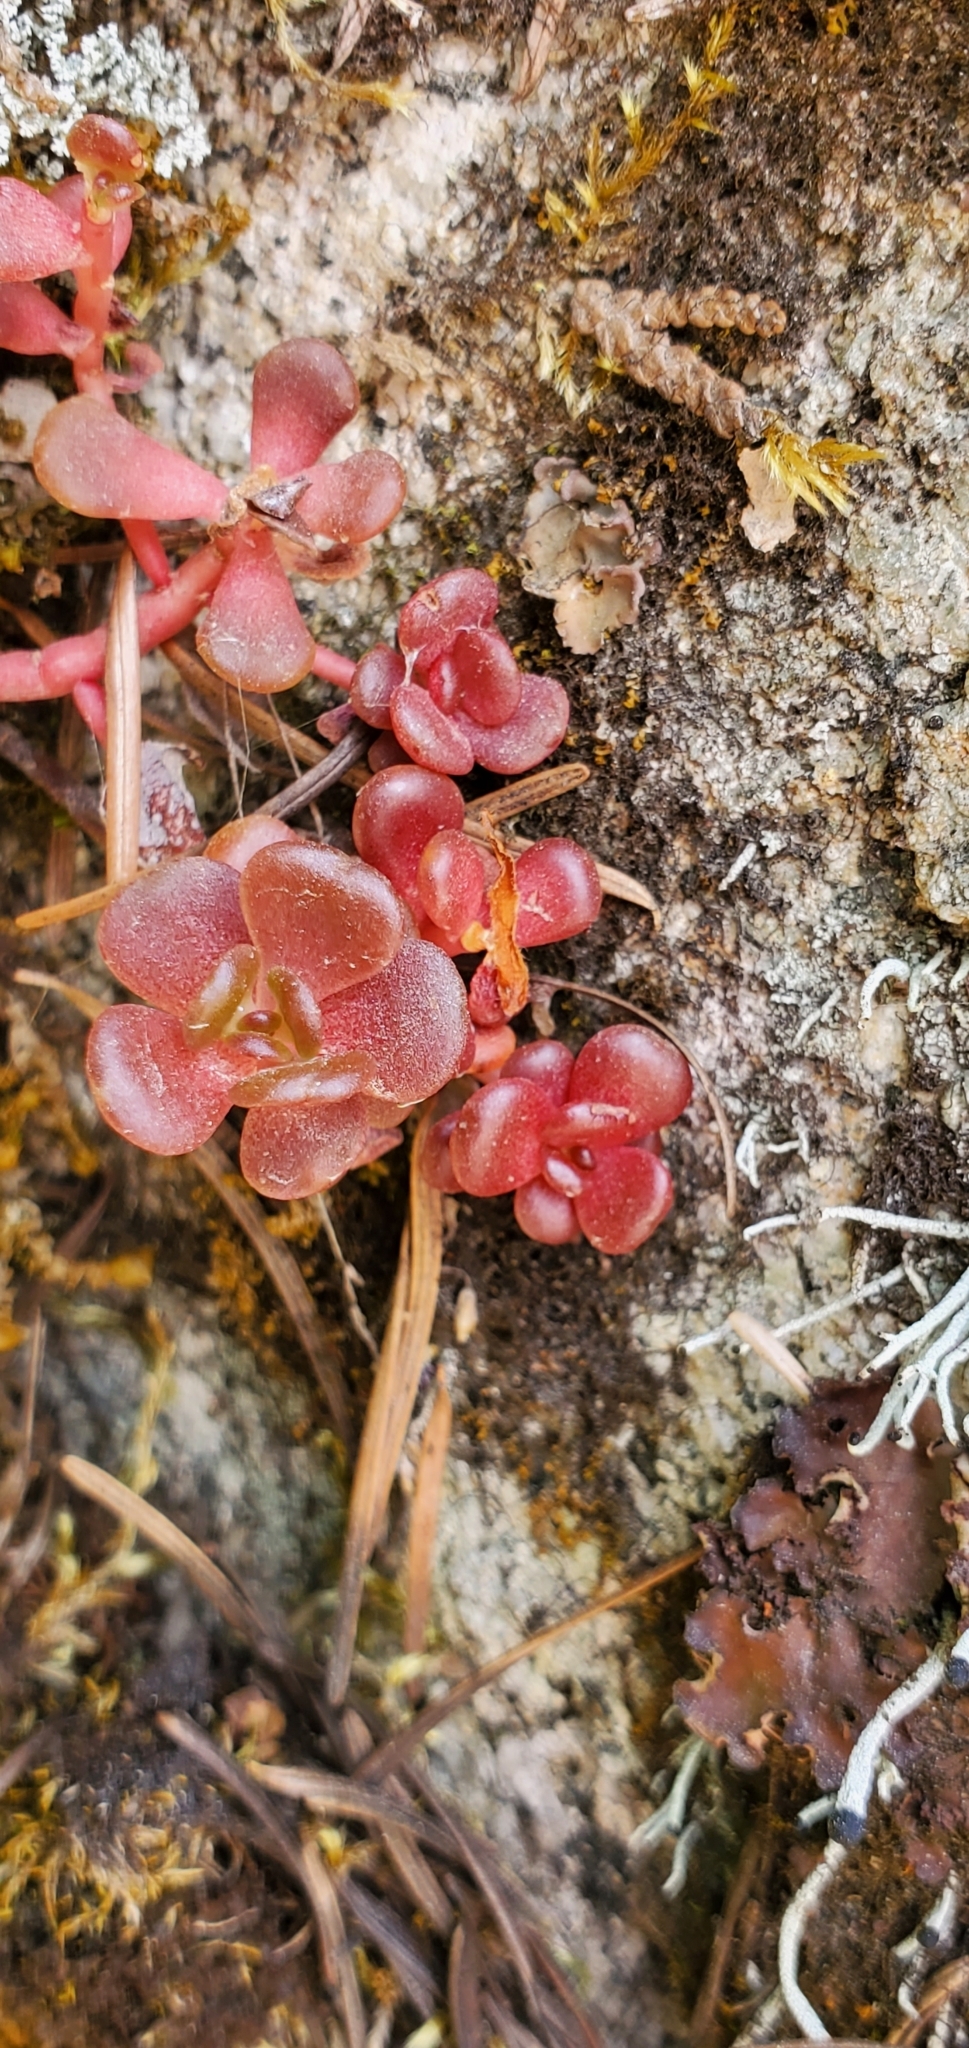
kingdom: Plantae
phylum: Tracheophyta
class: Magnoliopsida
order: Saxifragales
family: Crassulaceae
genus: Sedum
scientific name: Sedum oreganum
